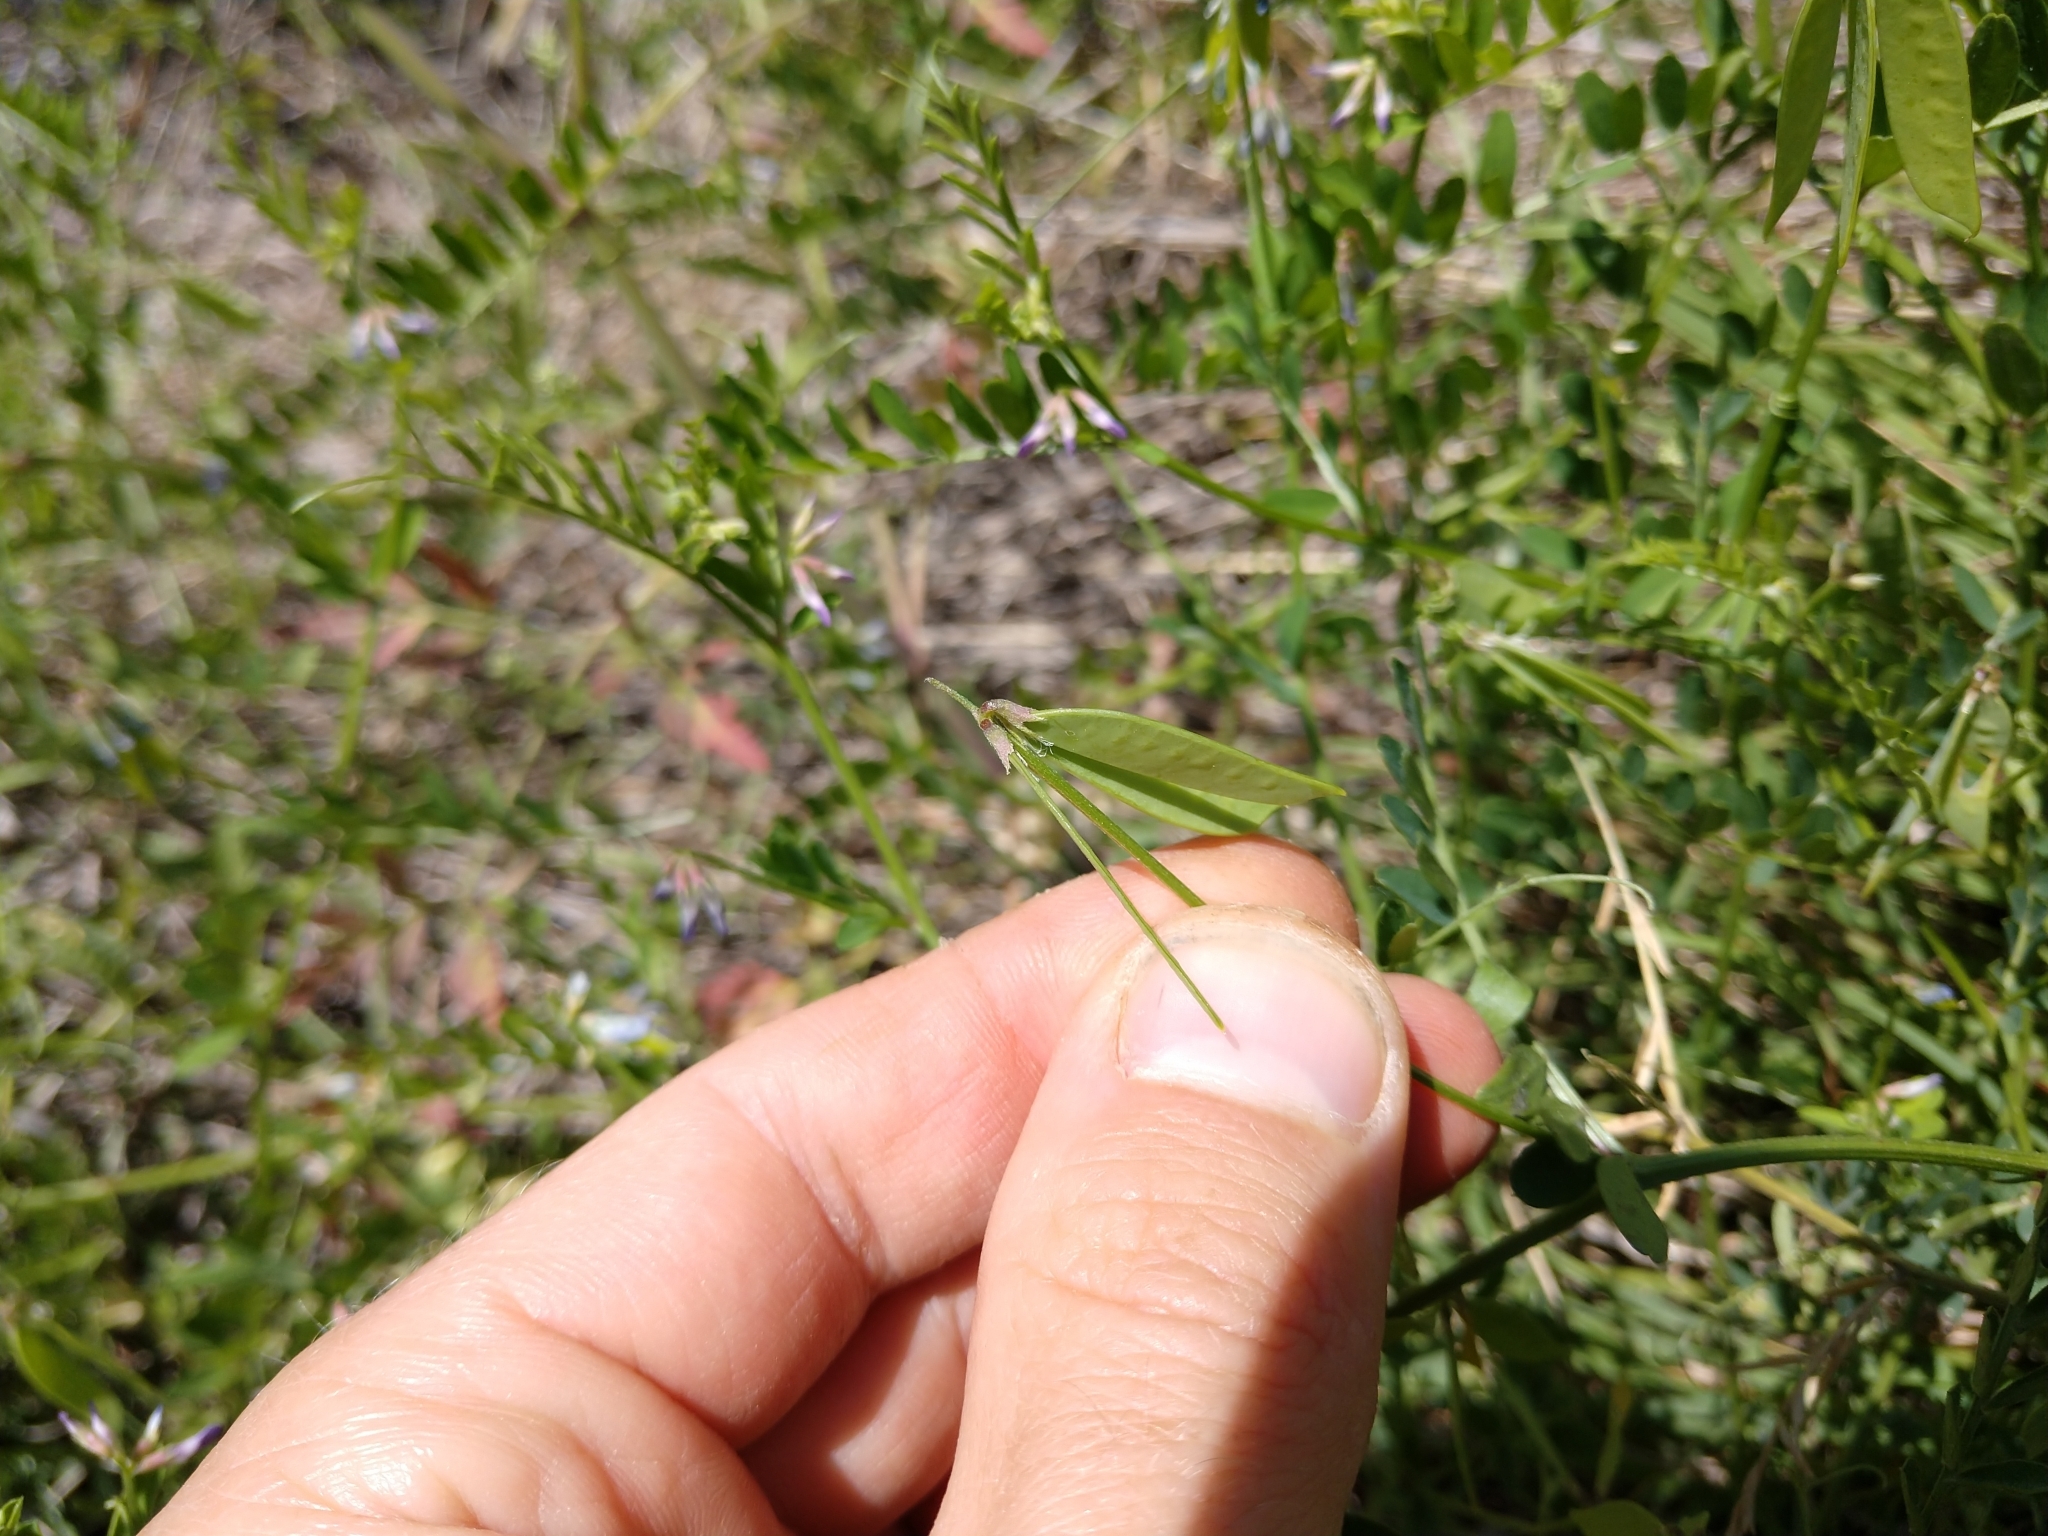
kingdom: Plantae
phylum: Tracheophyta
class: Magnoliopsida
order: Fabales
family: Fabaceae
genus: Vicia
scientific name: Vicia ludoviciana
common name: Louisiana vetch
